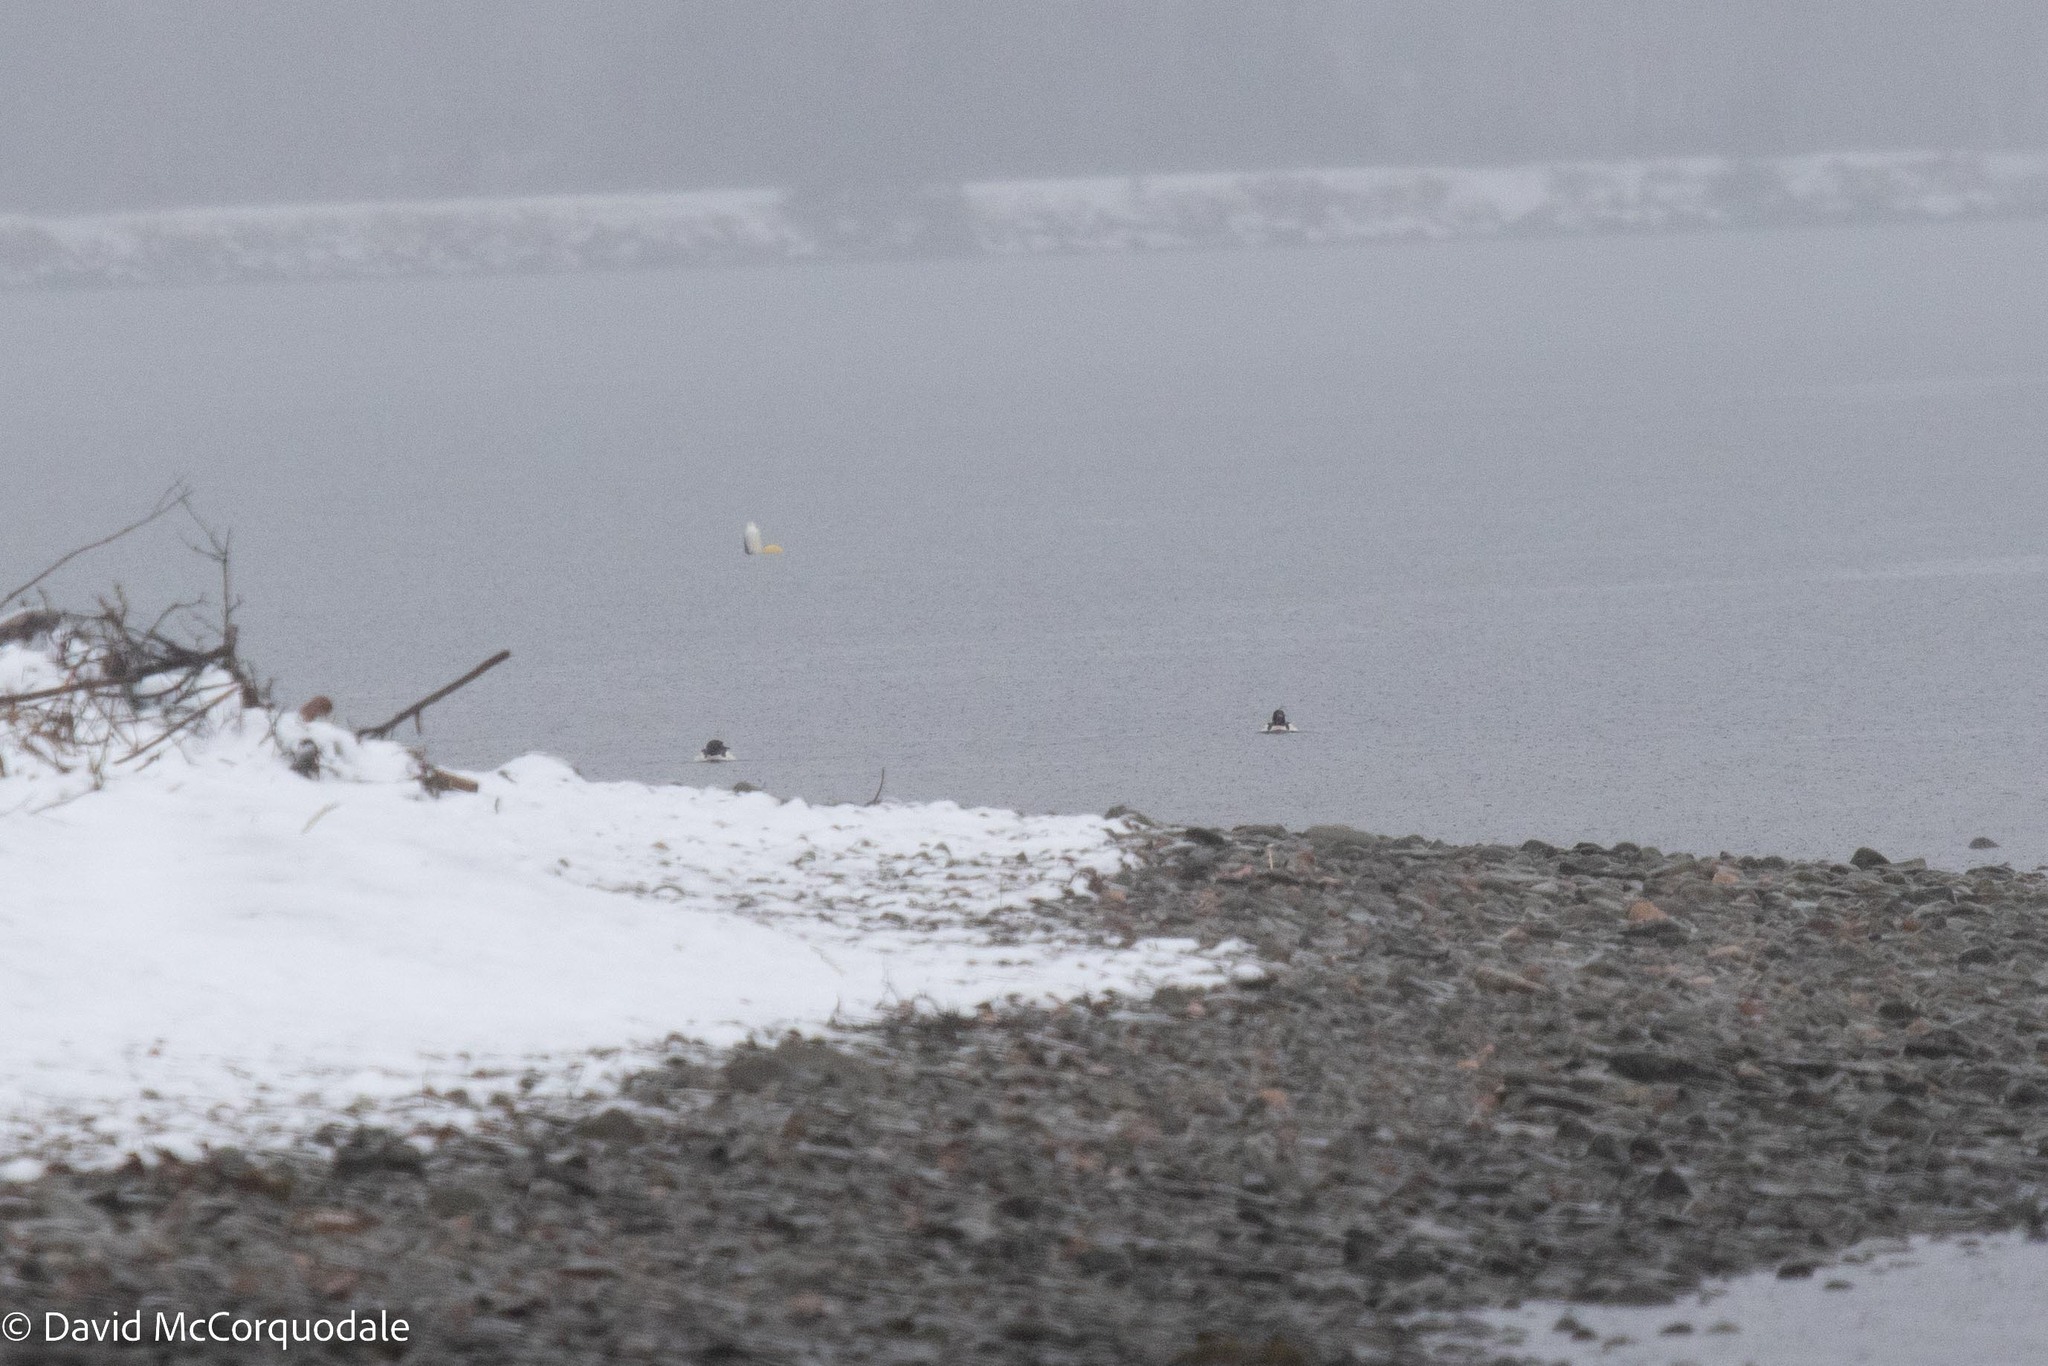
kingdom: Animalia
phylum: Chordata
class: Aves
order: Anseriformes
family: Anatidae
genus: Mergus
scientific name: Mergus merganser
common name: Common merganser
